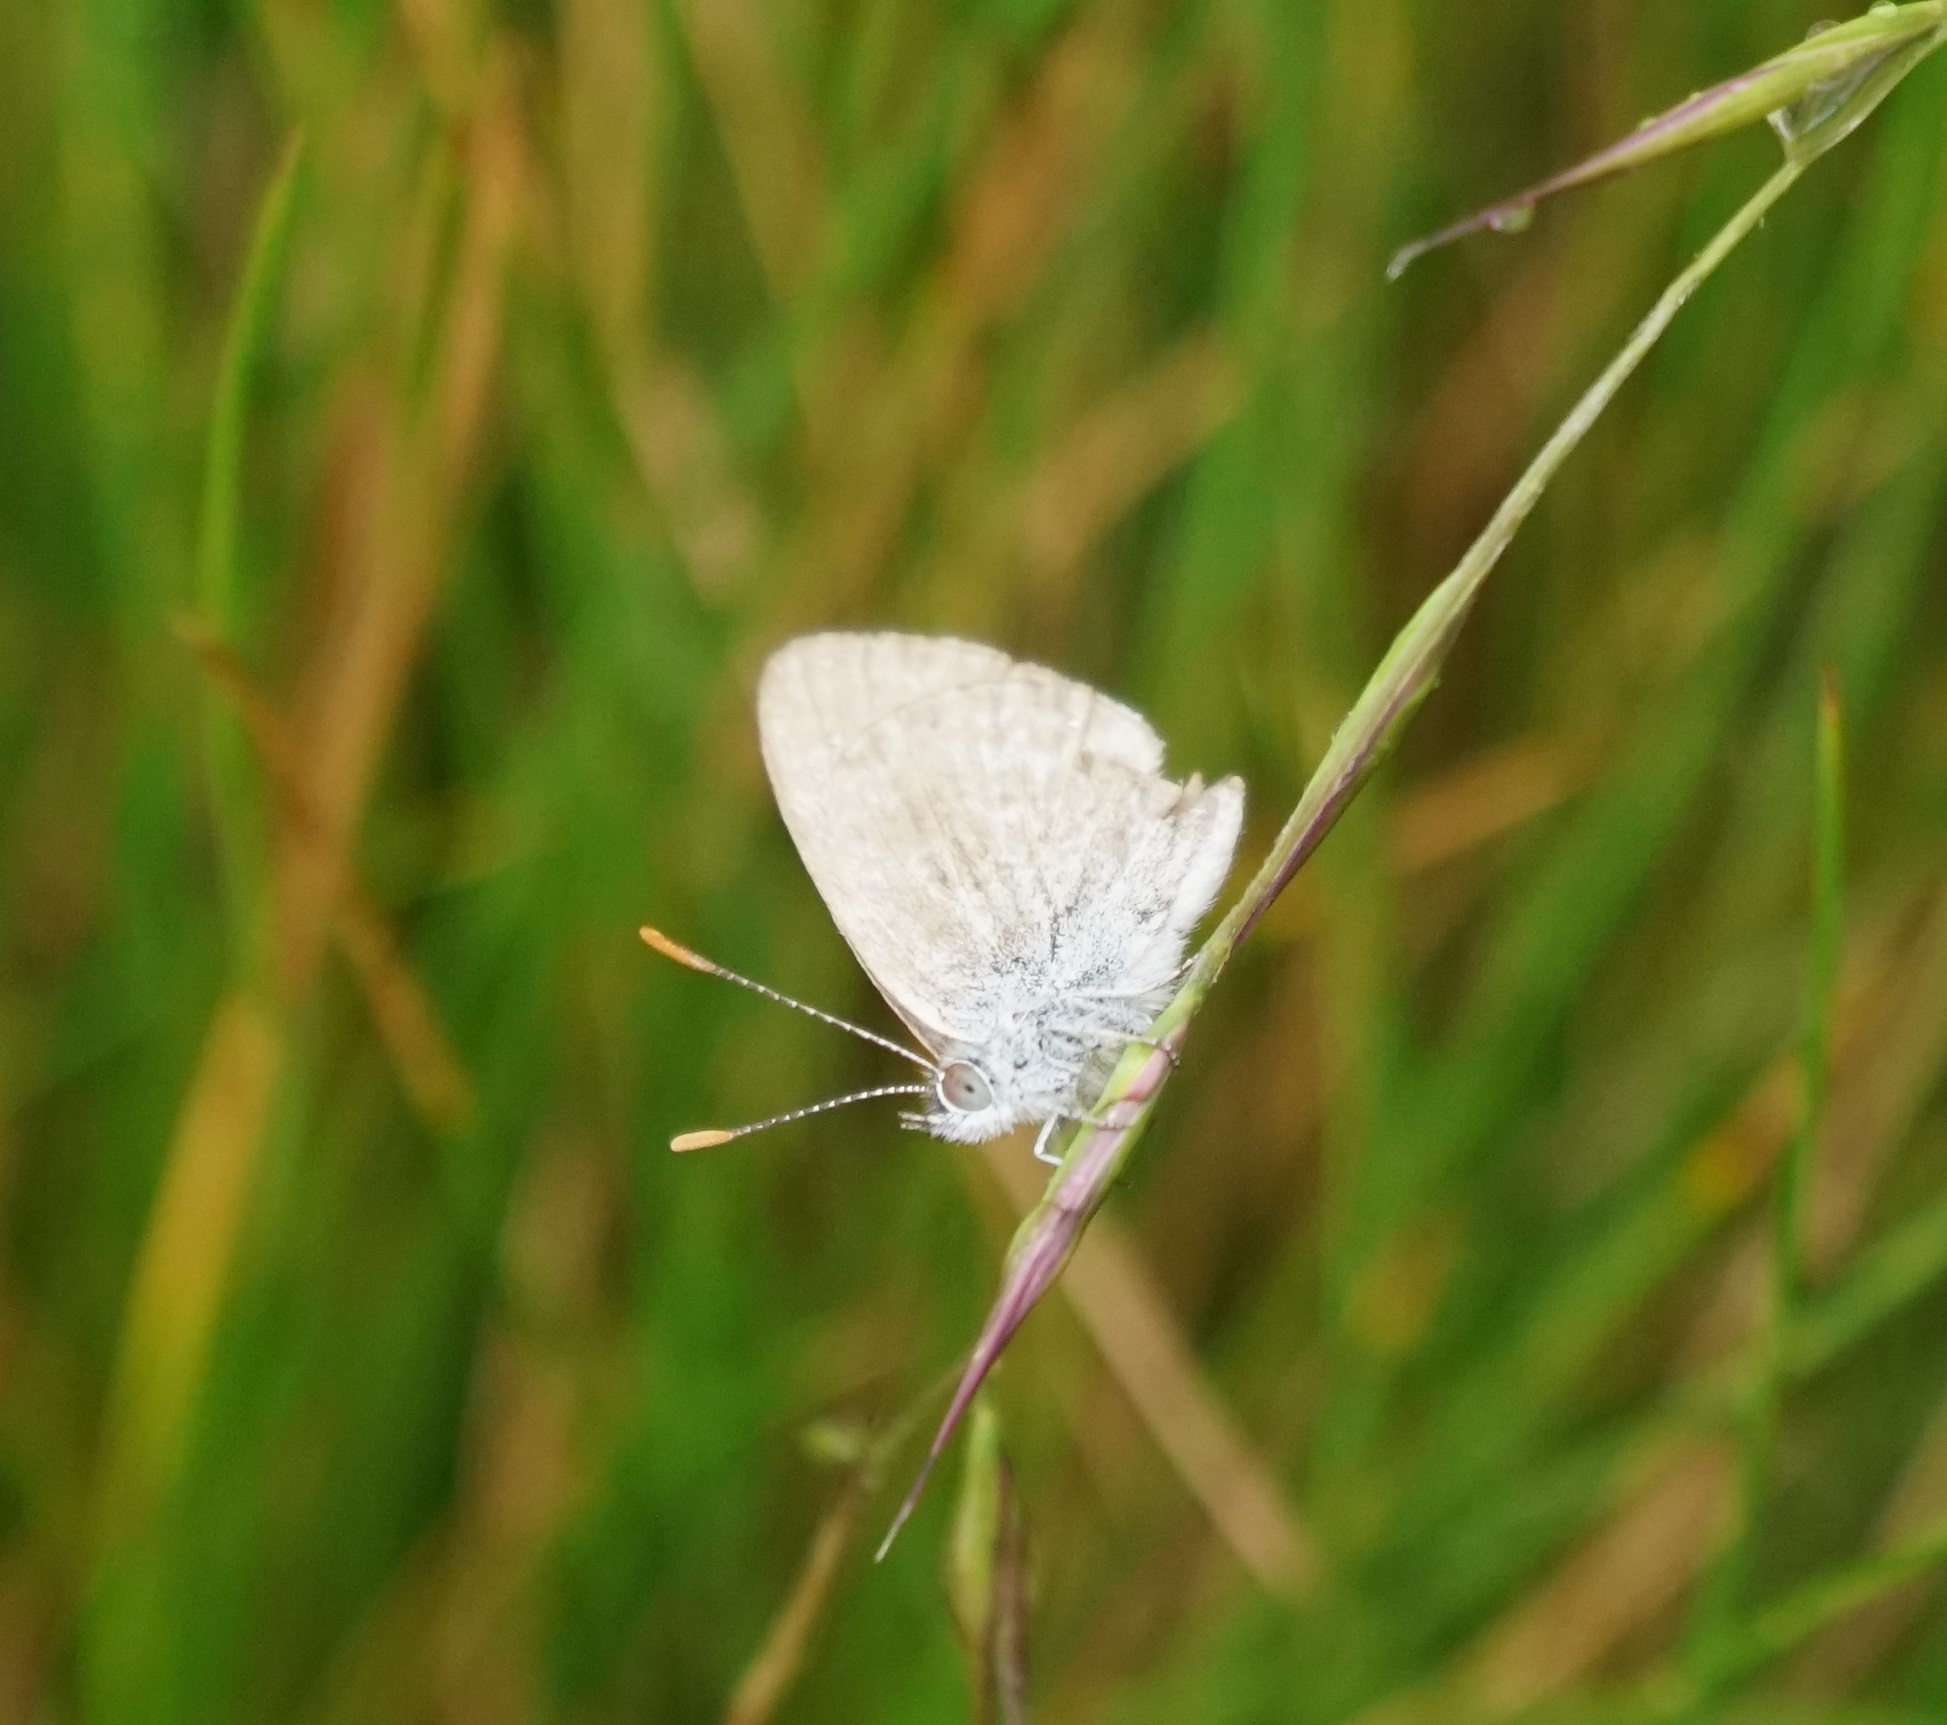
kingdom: Animalia
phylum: Arthropoda
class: Insecta
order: Lepidoptera
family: Lycaenidae
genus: Zizina
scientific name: Zizina labradus
